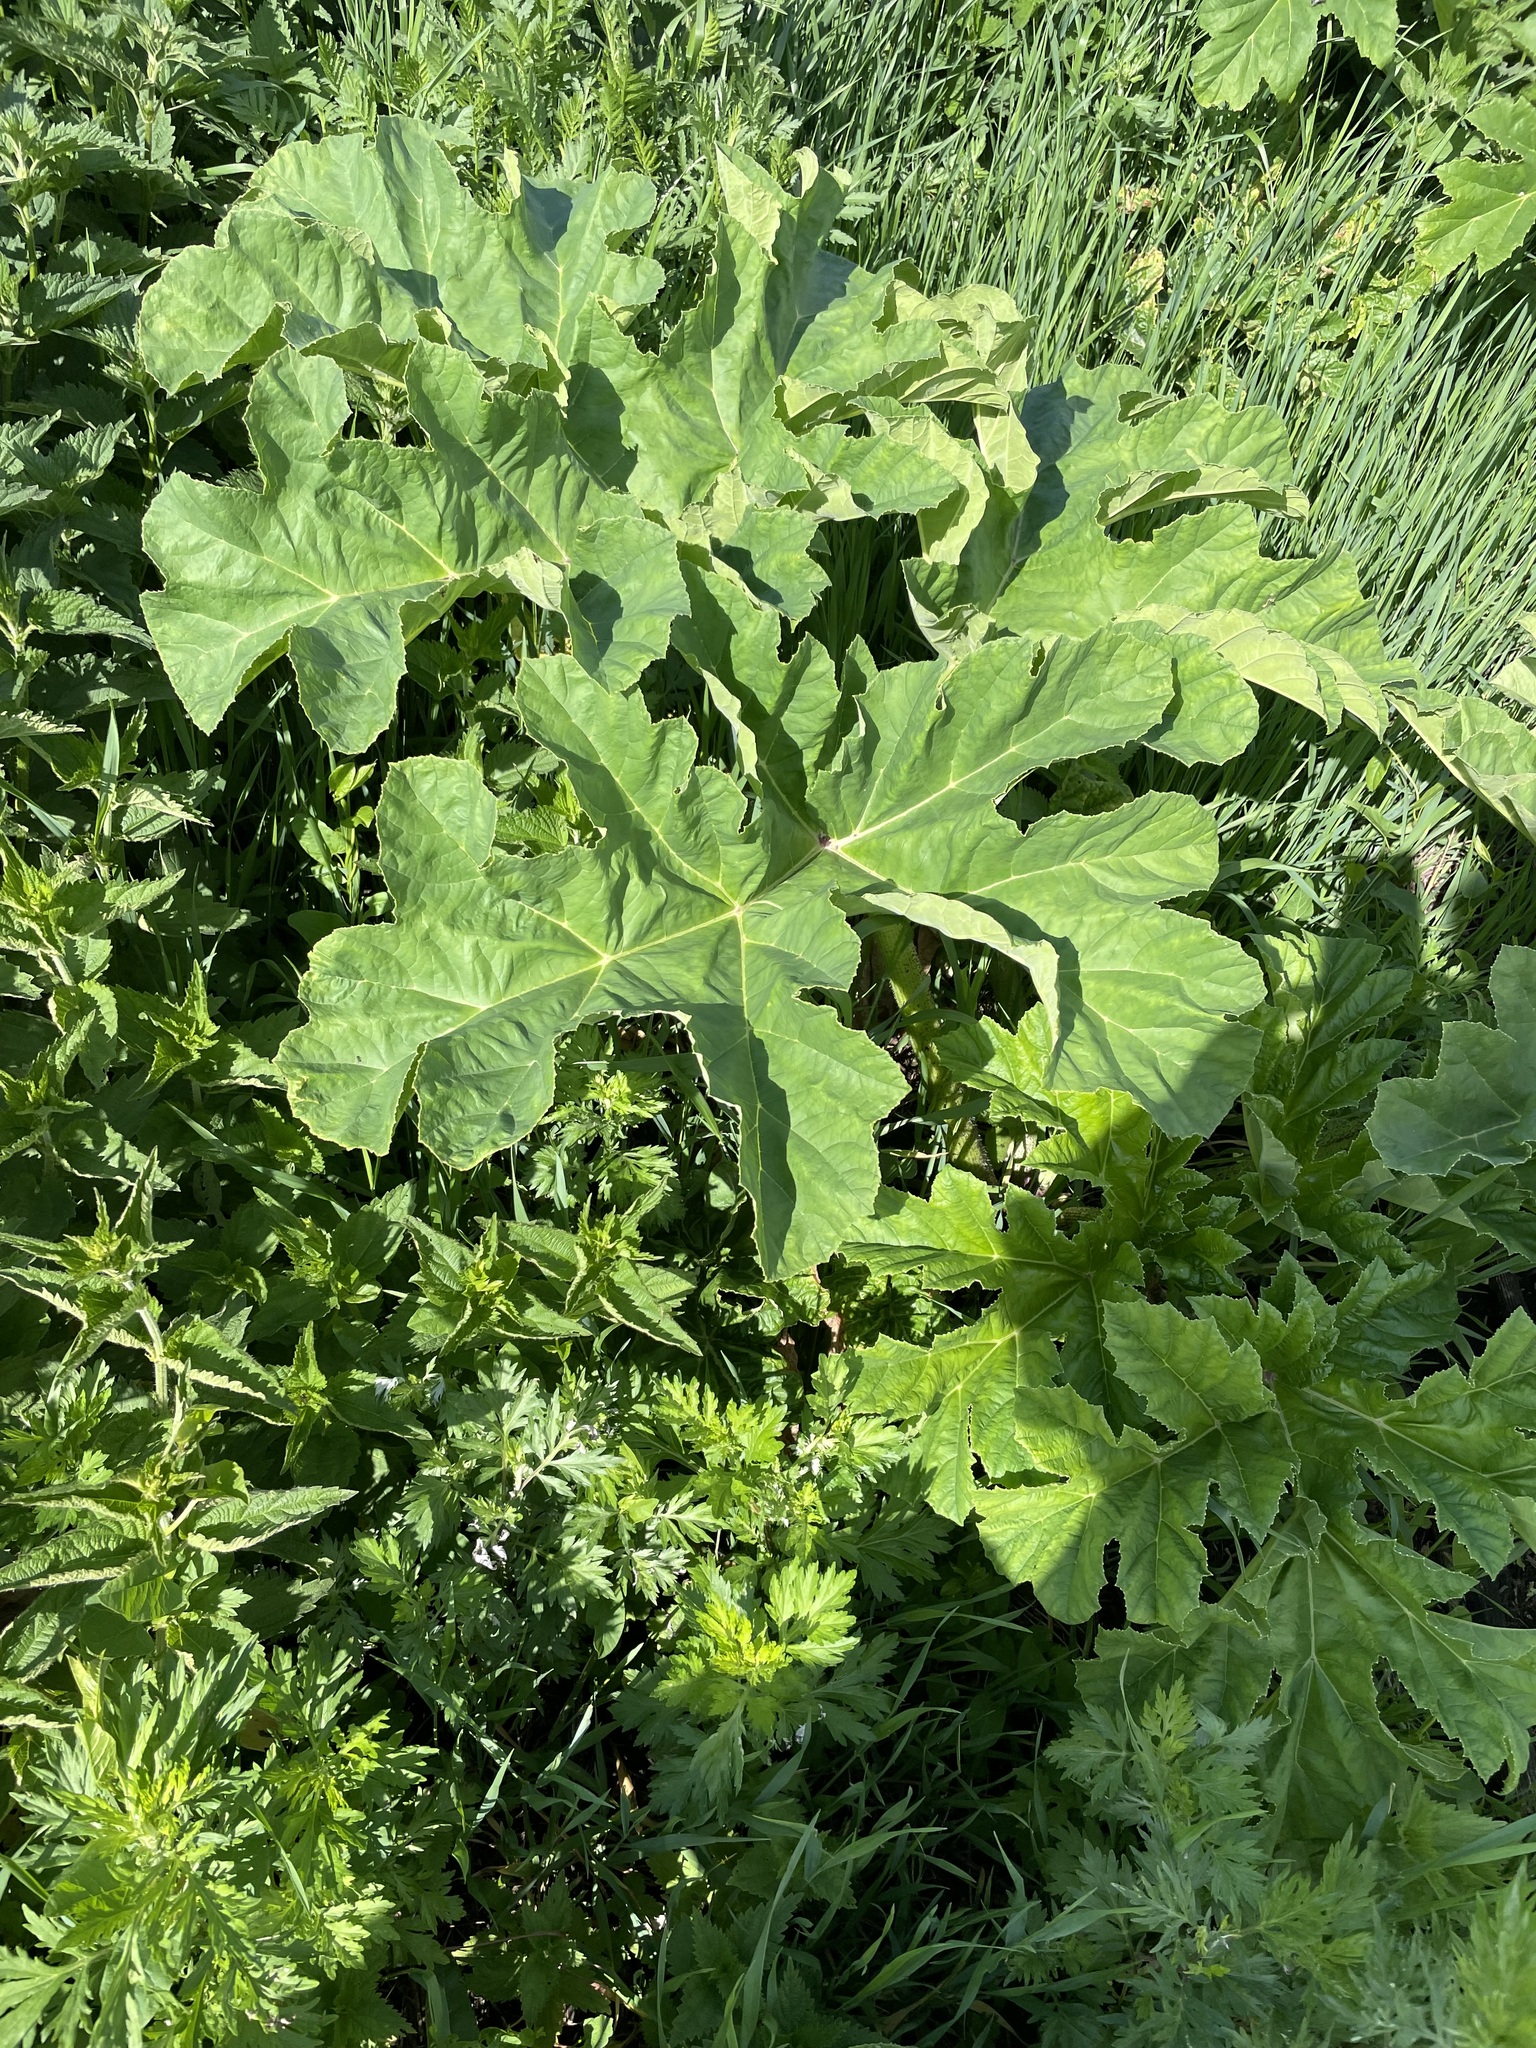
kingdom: Plantae
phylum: Tracheophyta
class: Magnoliopsida
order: Apiales
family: Apiaceae
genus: Heracleum
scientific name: Heracleum sosnowskyi
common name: Sosnowsky's hogweed
